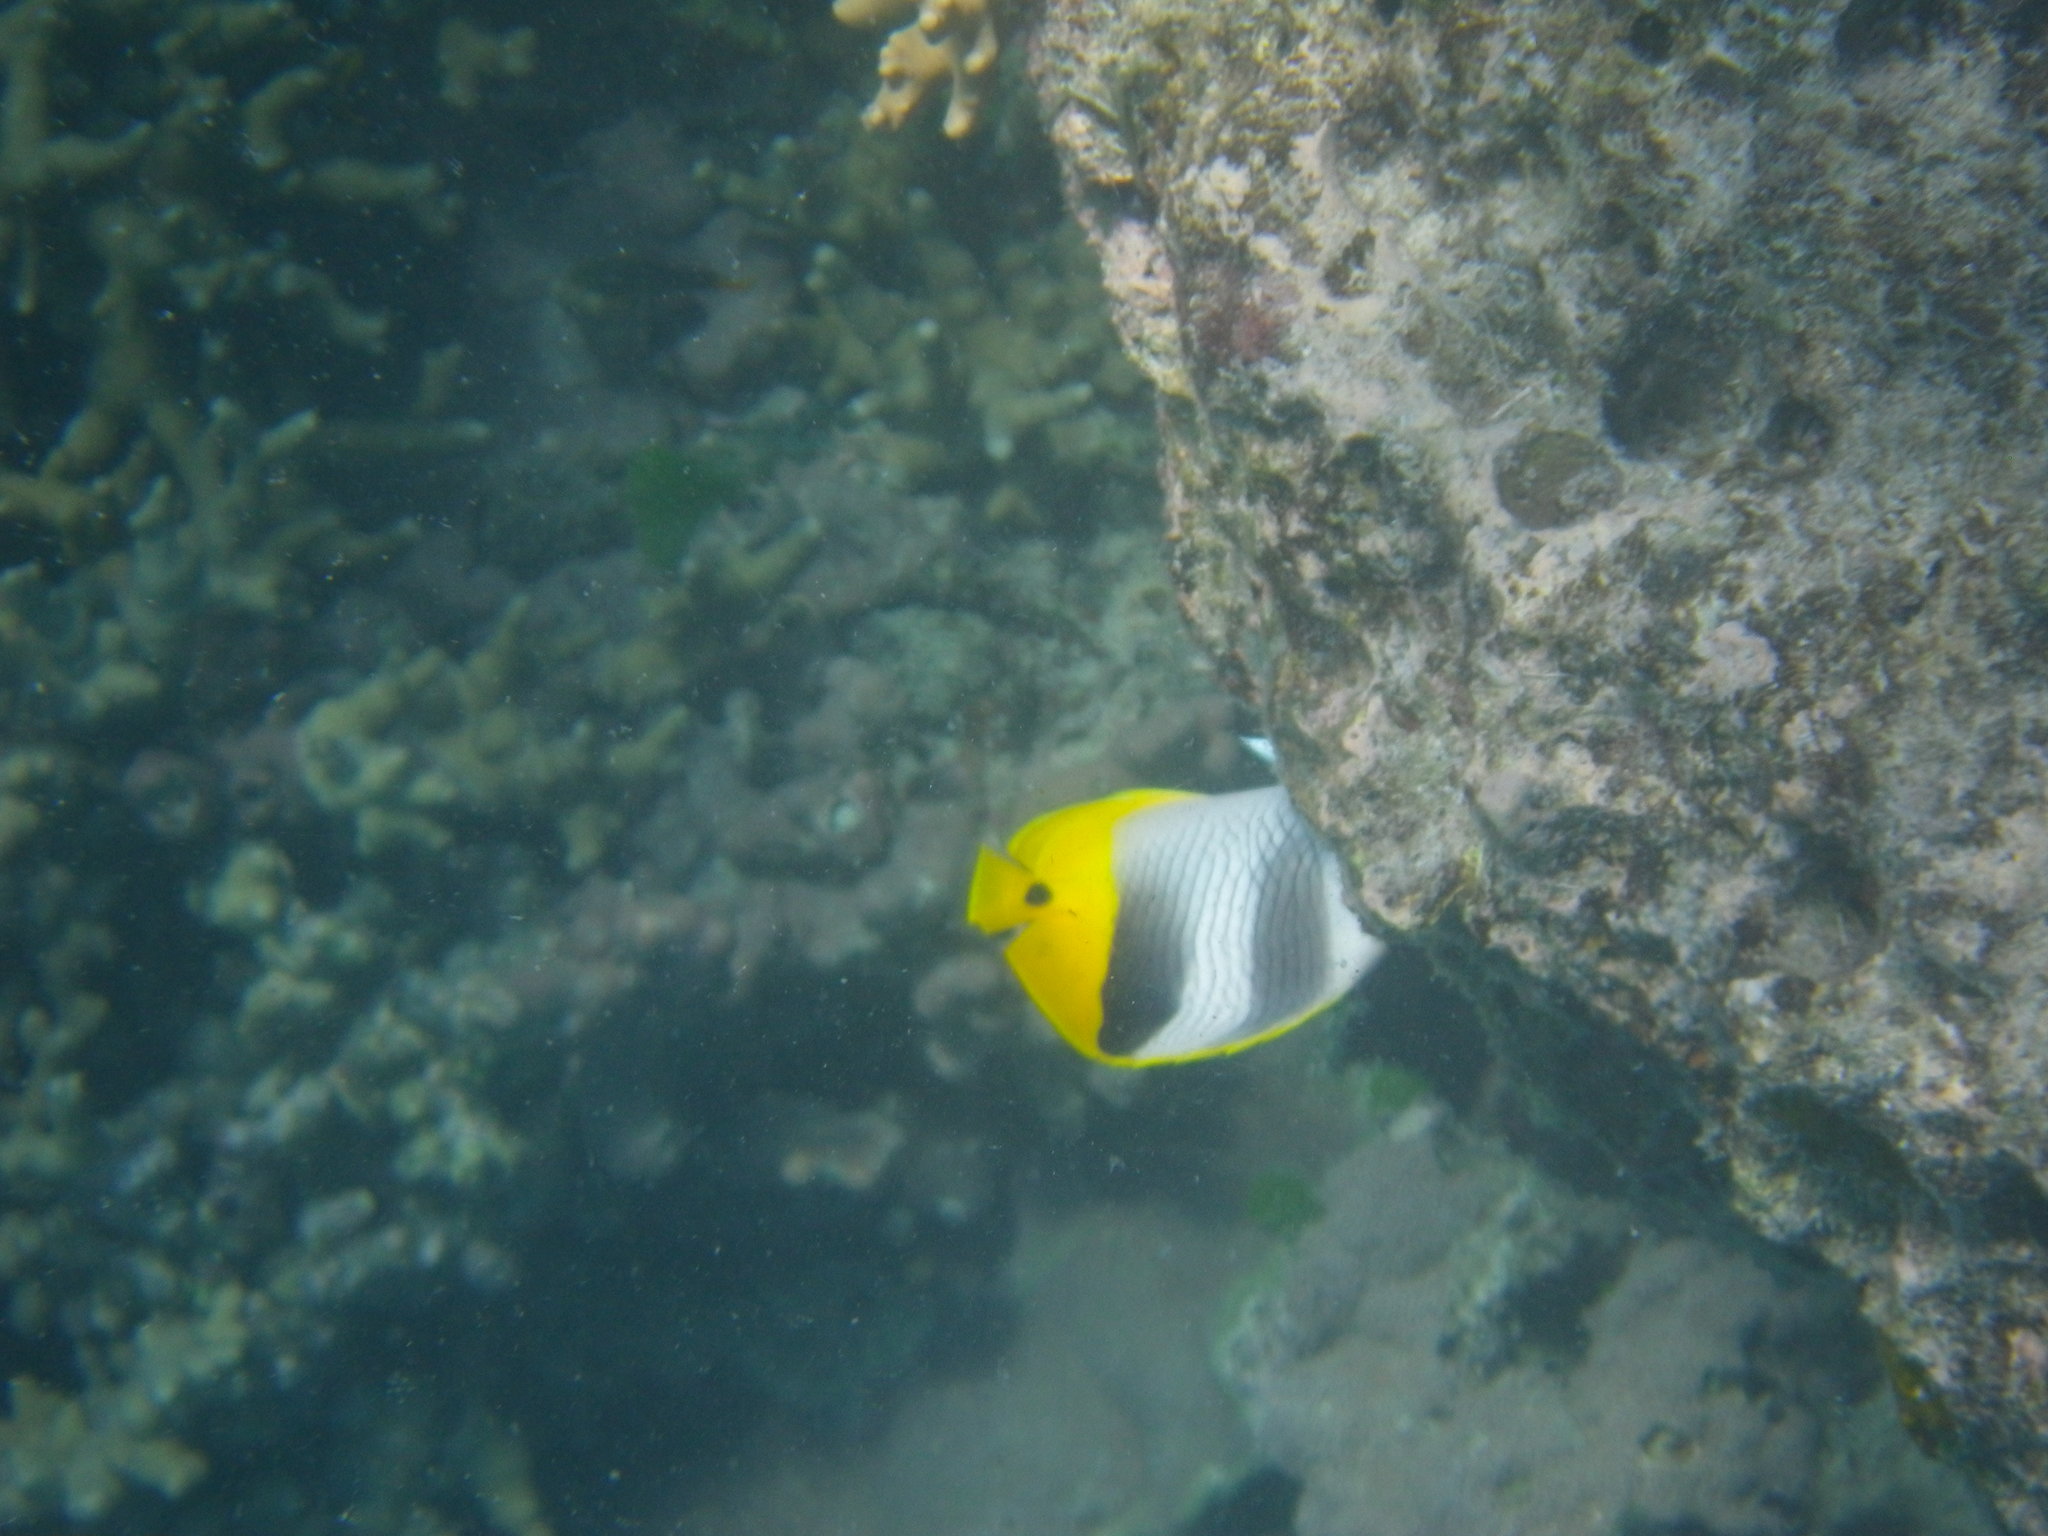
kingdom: Animalia
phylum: Chordata
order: Perciformes
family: Chaetodontidae
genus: Chaetodon
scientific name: Chaetodon ulietensis
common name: Pacific double-saddle butterflyfish
